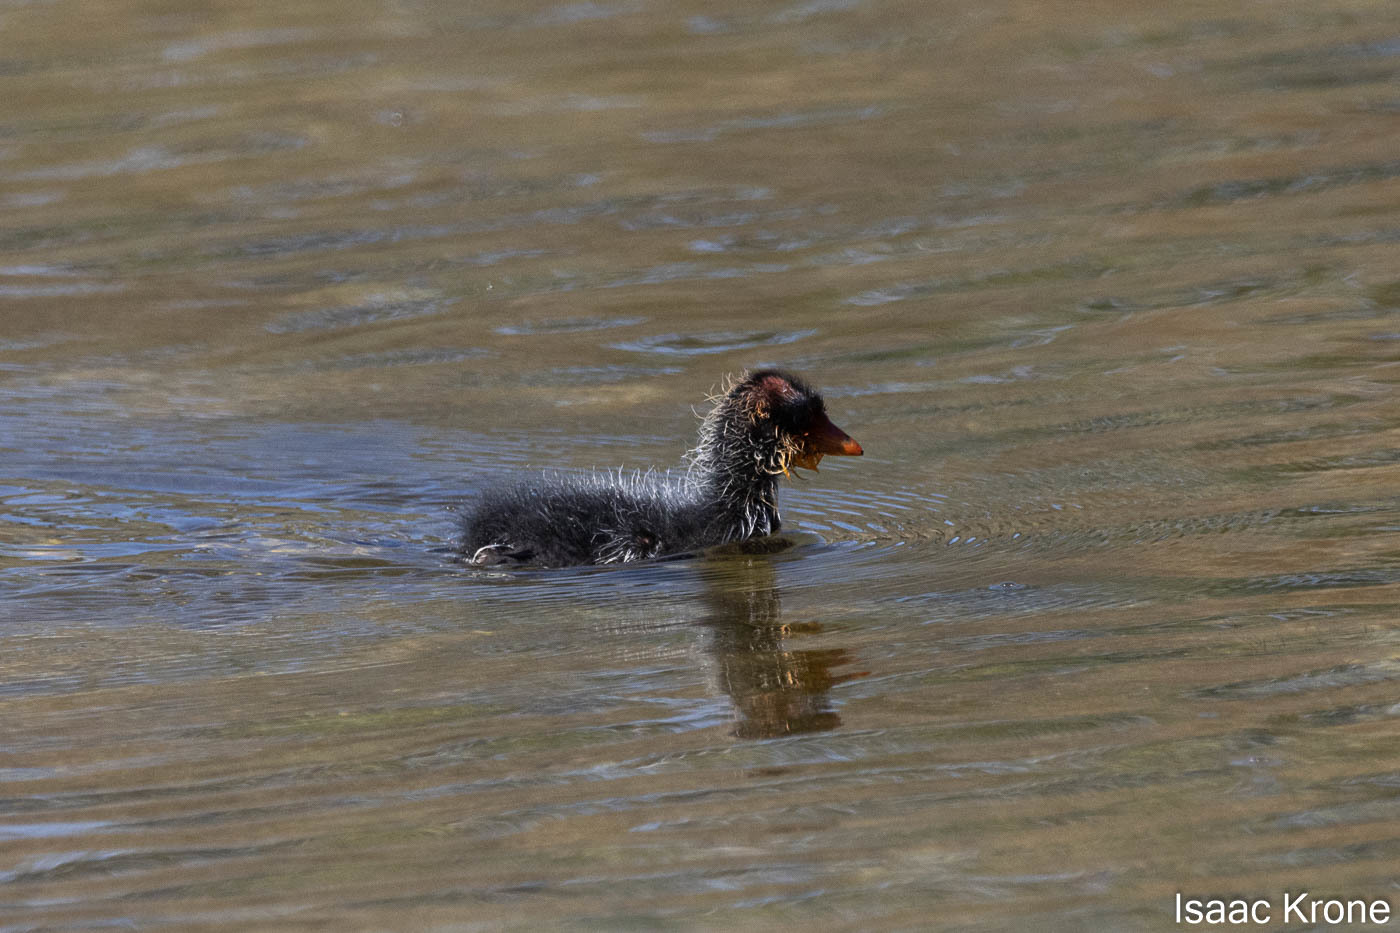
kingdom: Animalia
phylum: Chordata
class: Aves
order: Gruiformes
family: Rallidae
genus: Fulica
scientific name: Fulica americana
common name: American coot
